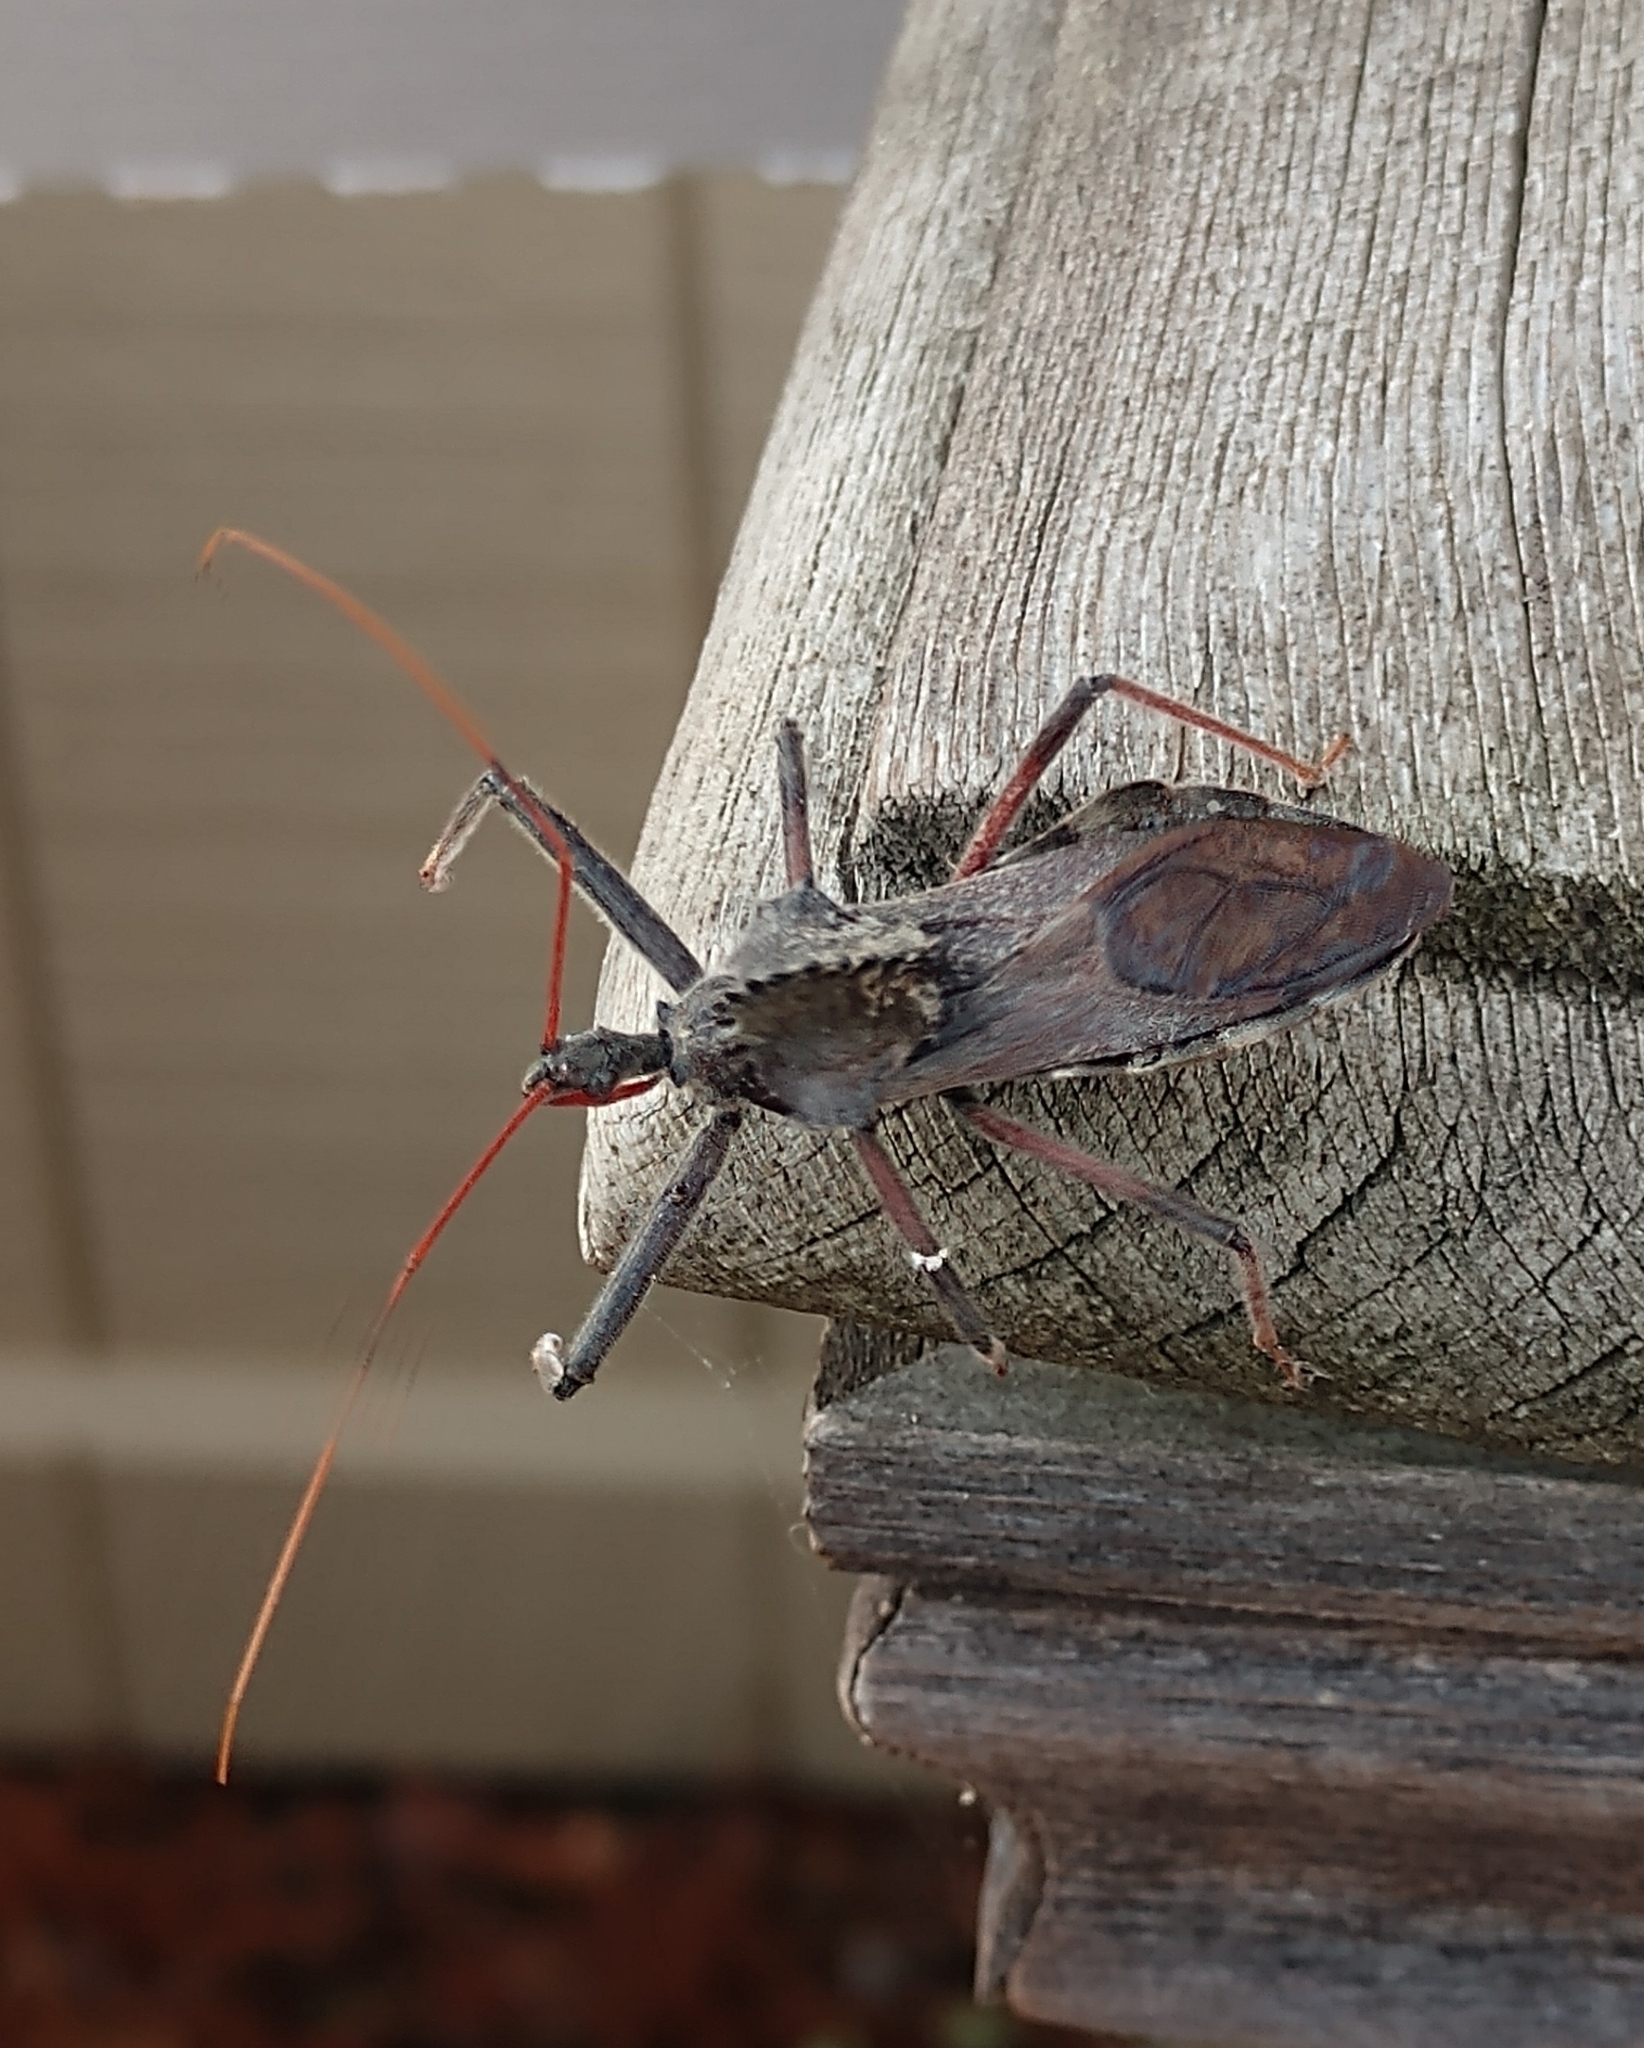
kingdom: Animalia
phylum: Arthropoda
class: Insecta
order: Hemiptera
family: Reduviidae
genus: Arilus
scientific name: Arilus cristatus
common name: North american wheel bug
